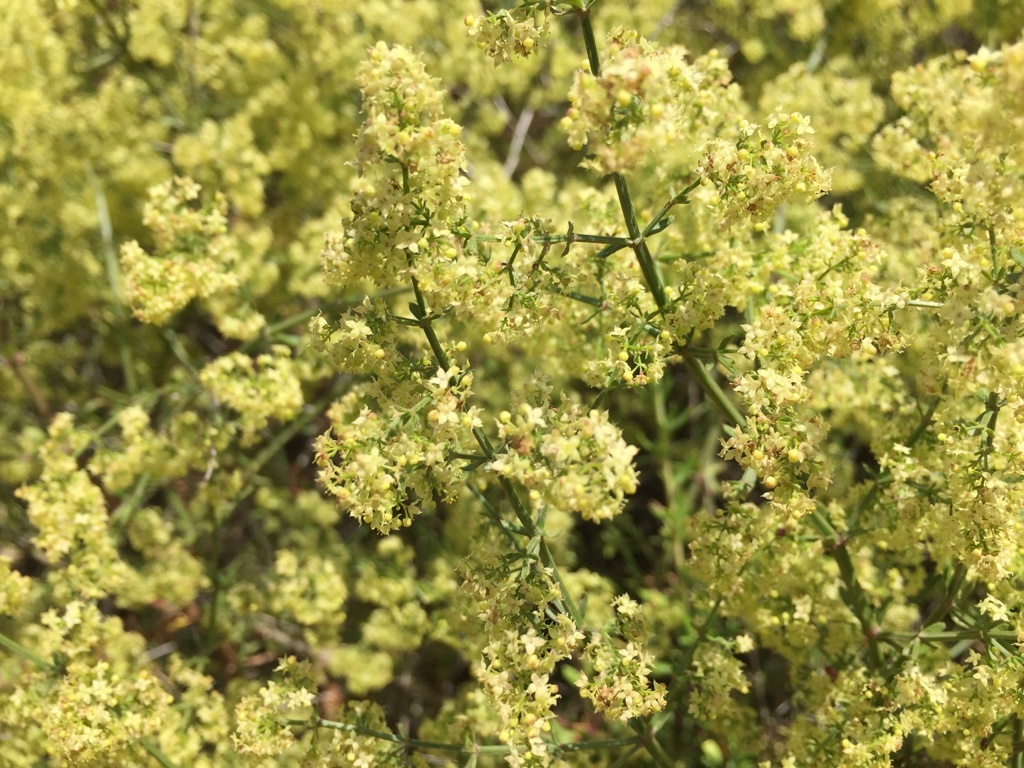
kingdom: Plantae
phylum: Tracheophyta
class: Magnoliopsida
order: Gentianales
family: Rubiaceae
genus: Galium
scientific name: Galium angustifolium
